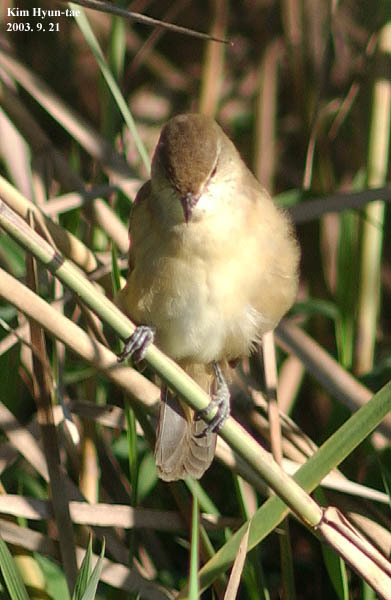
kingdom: Animalia
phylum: Chordata
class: Aves
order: Passeriformes
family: Acrocephalidae
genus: Acrocephalus
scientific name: Acrocephalus orientalis
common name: Oriental reed warbler
